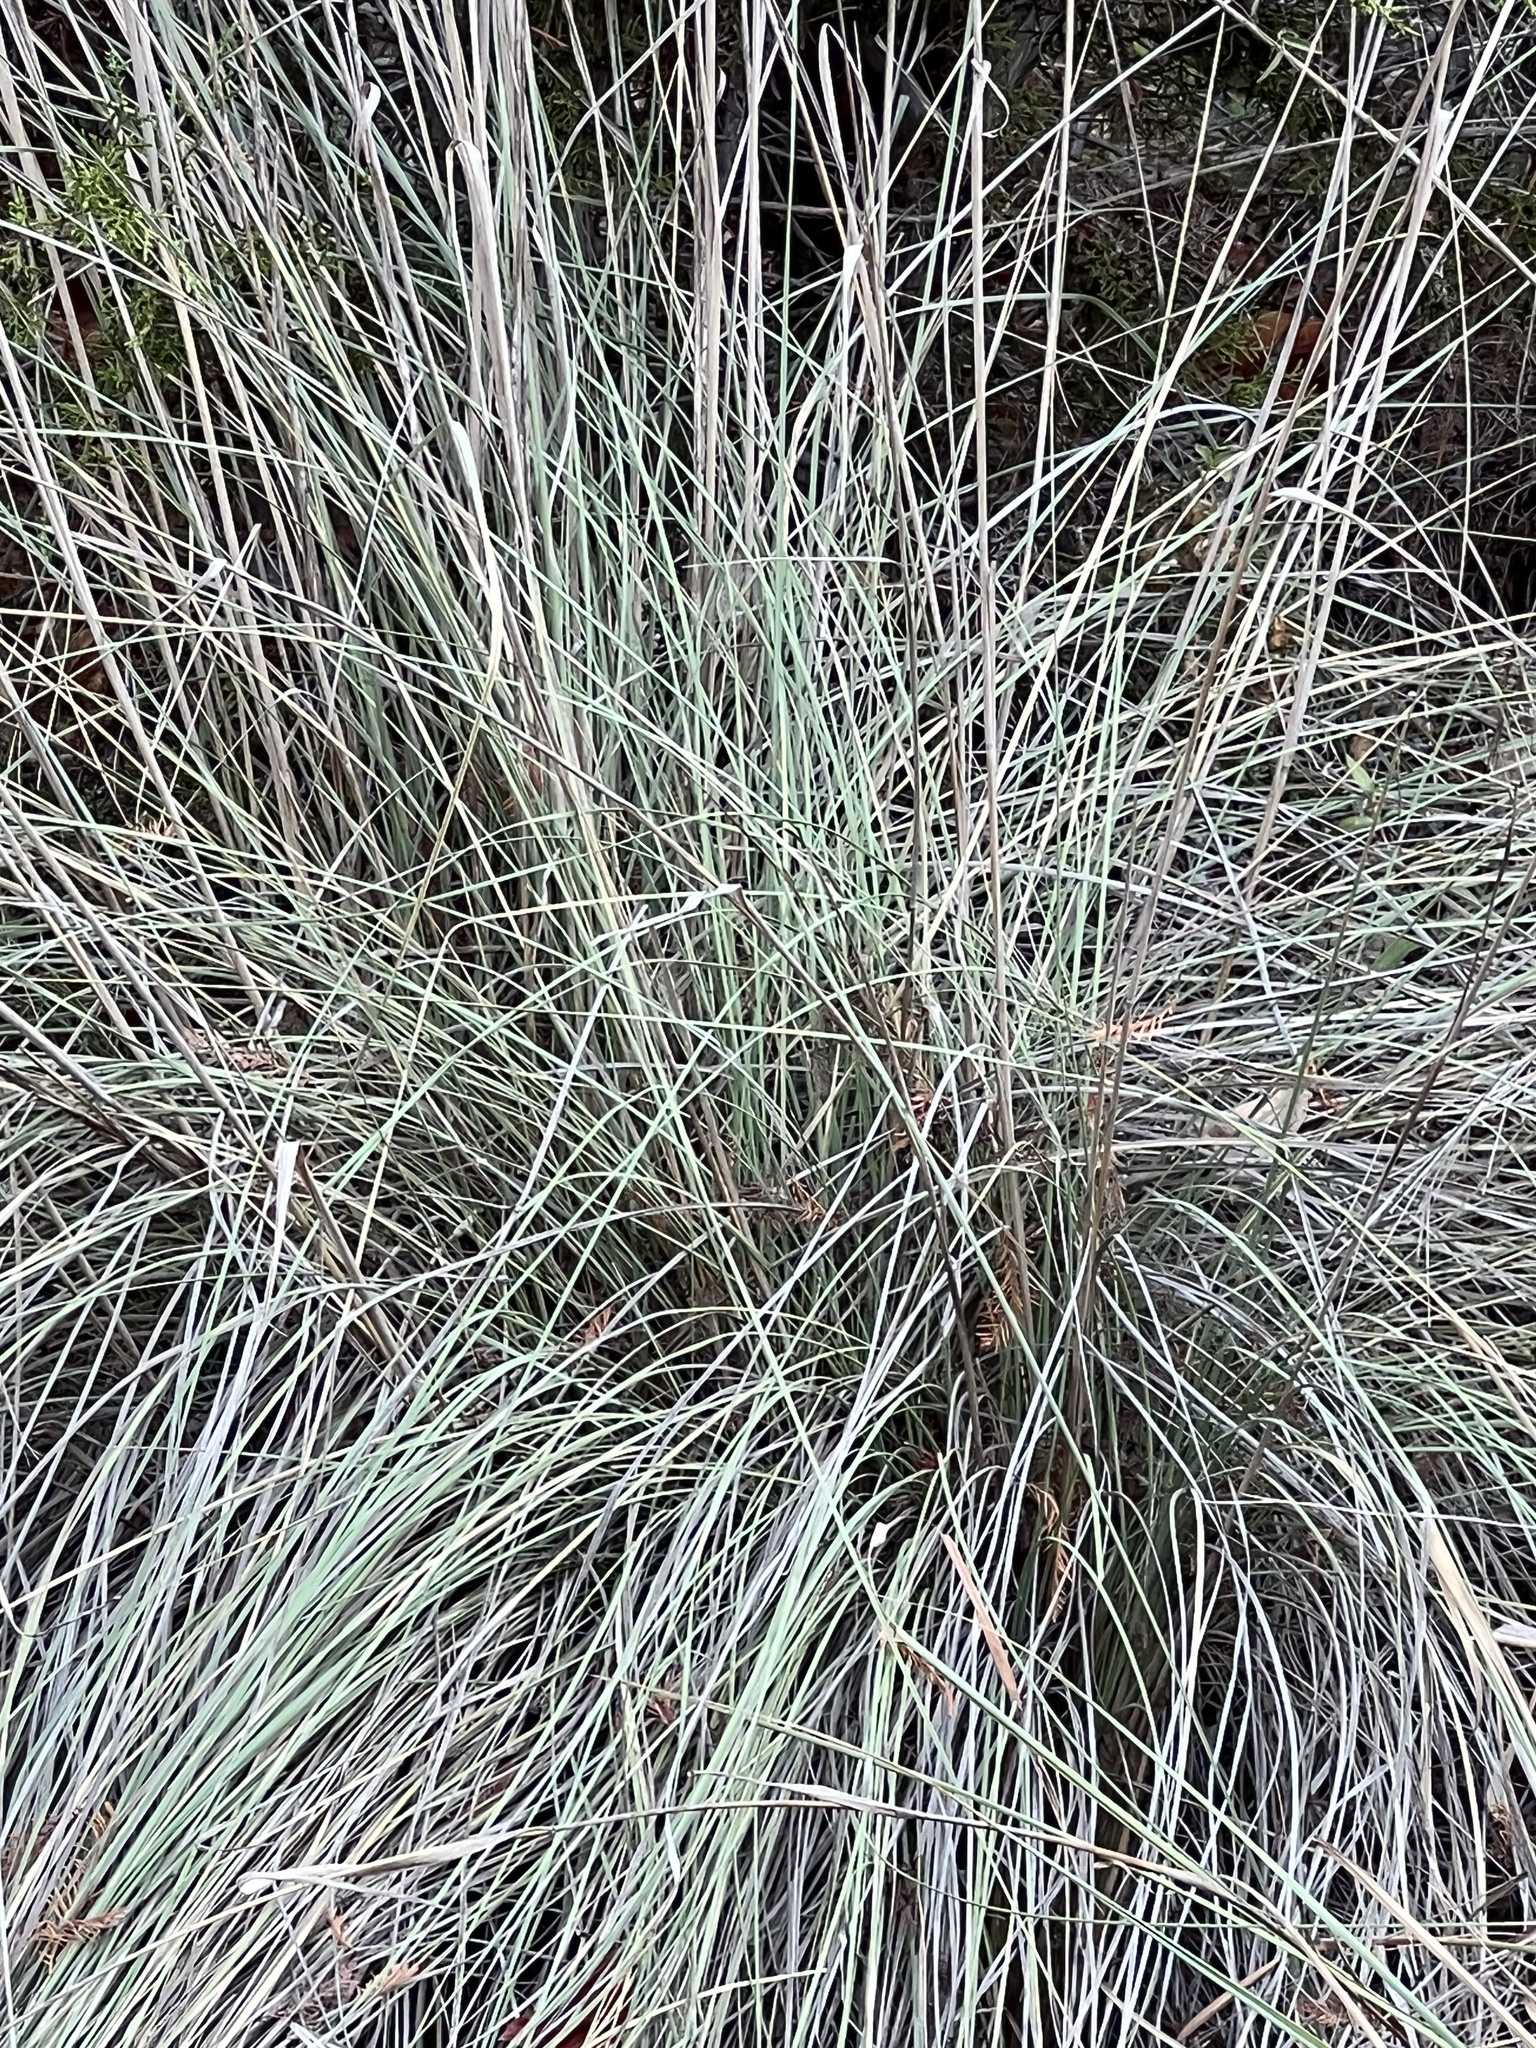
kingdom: Plantae
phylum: Tracheophyta
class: Liliopsida
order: Poales
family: Poaceae
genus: Muhlenbergia
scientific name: Muhlenbergia lindheimeri
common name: Lindheimer's muhly
